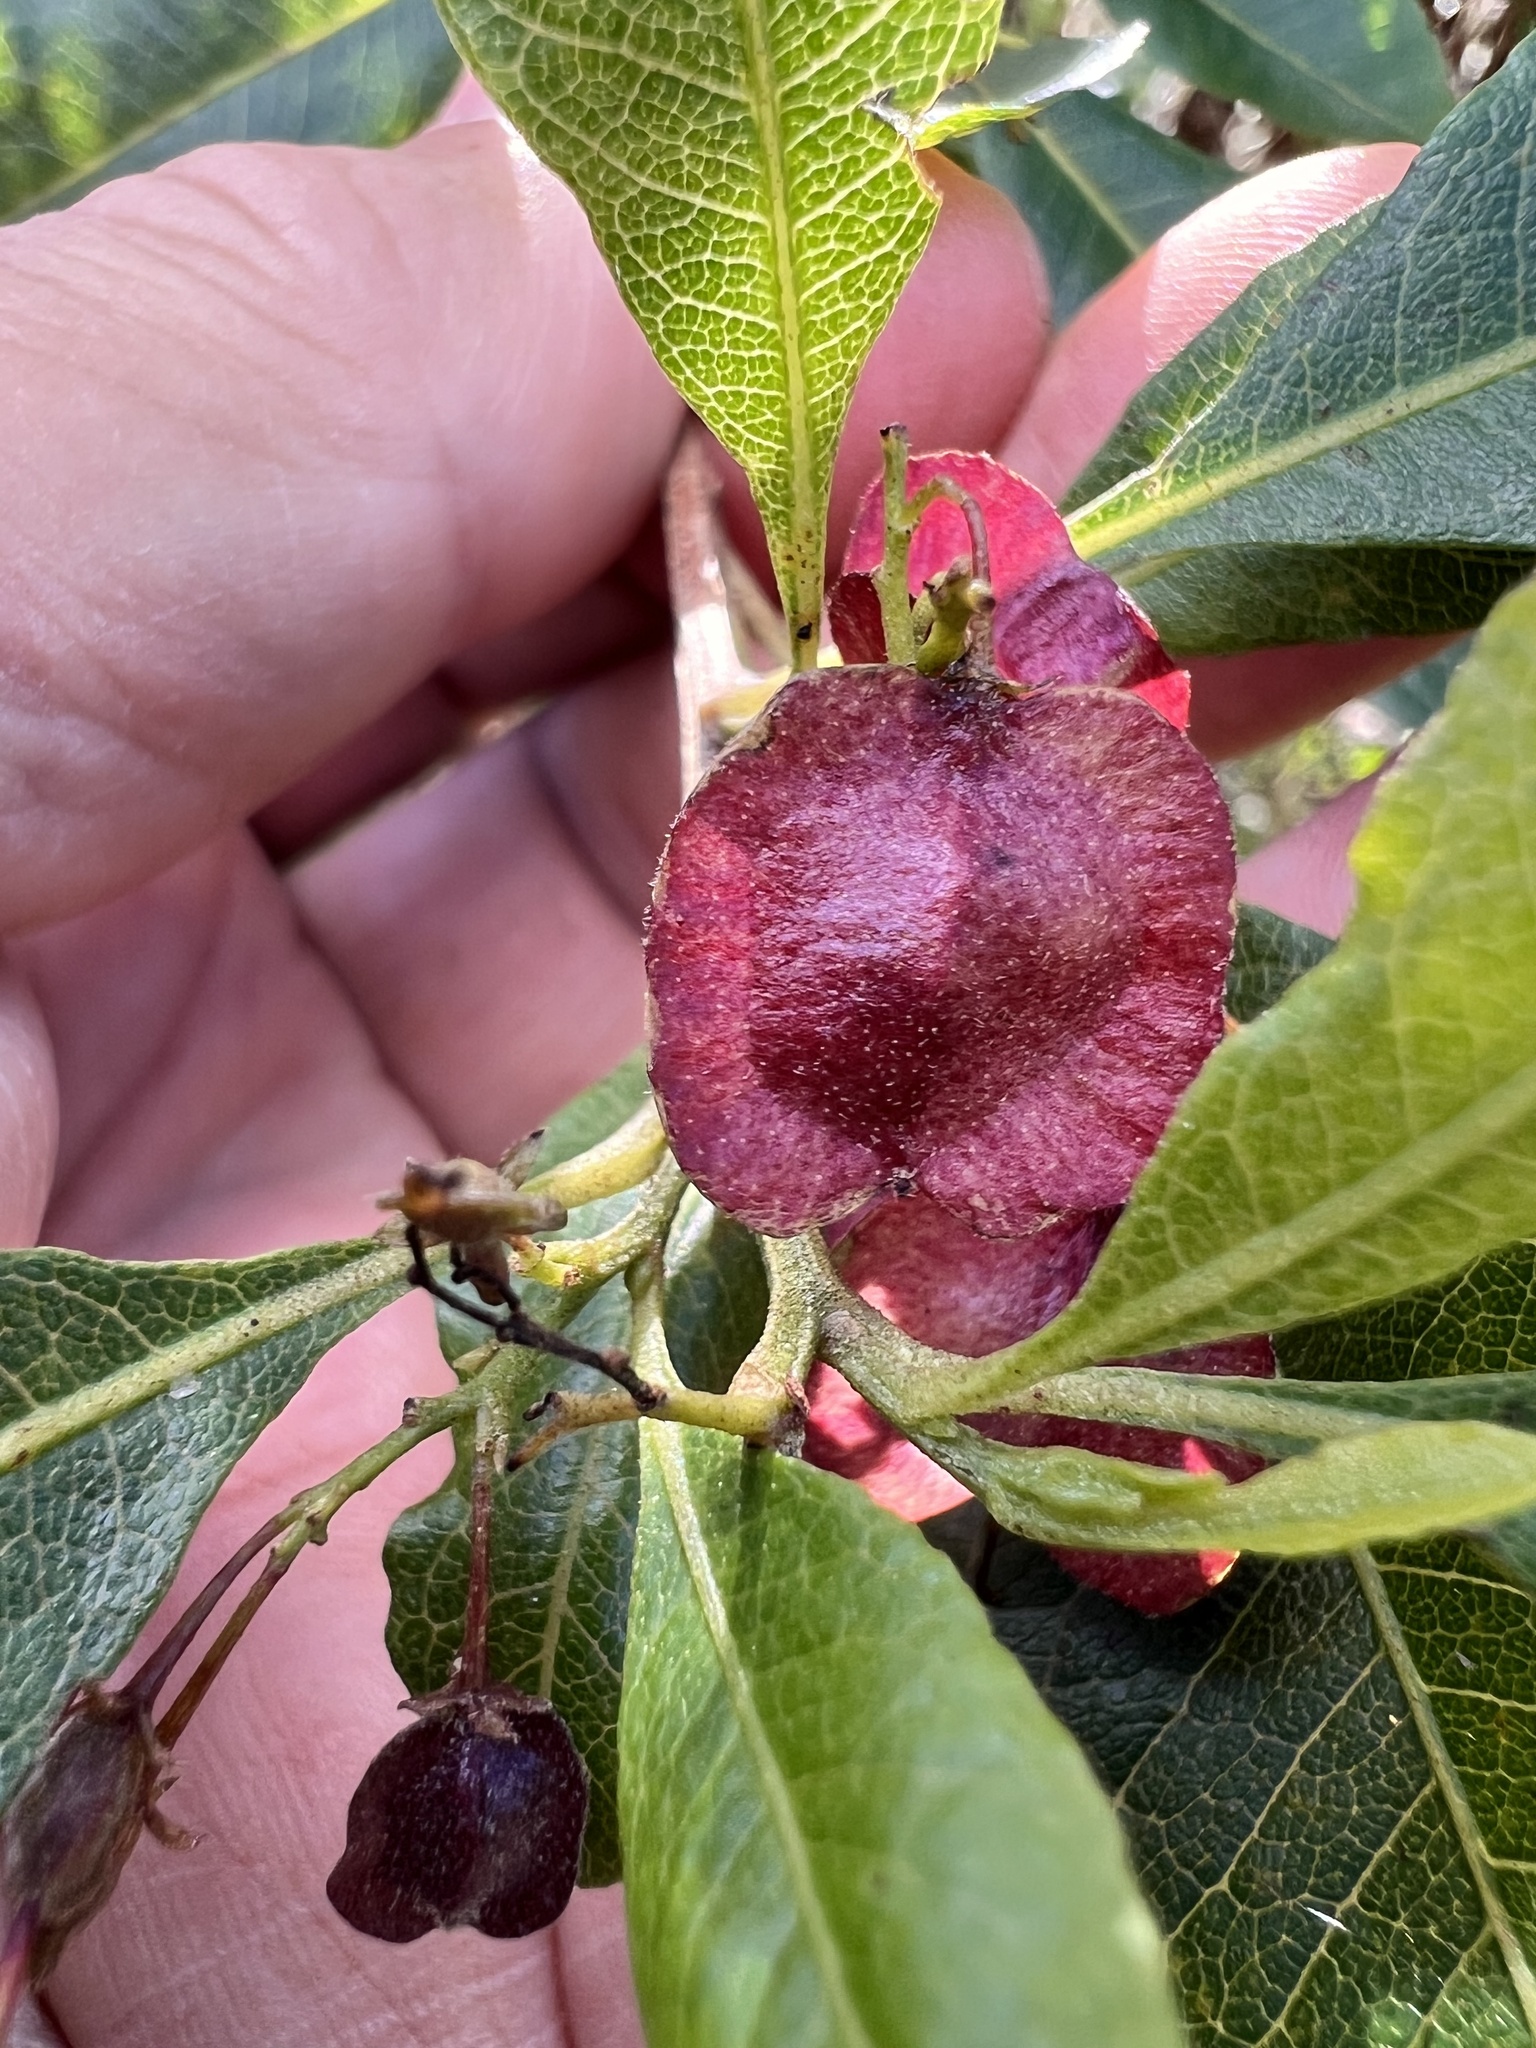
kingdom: Plantae
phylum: Tracheophyta
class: Magnoliopsida
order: Sapindales
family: Sapindaceae
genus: Dodonaea
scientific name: Dodonaea viscosa
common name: Hopbush
